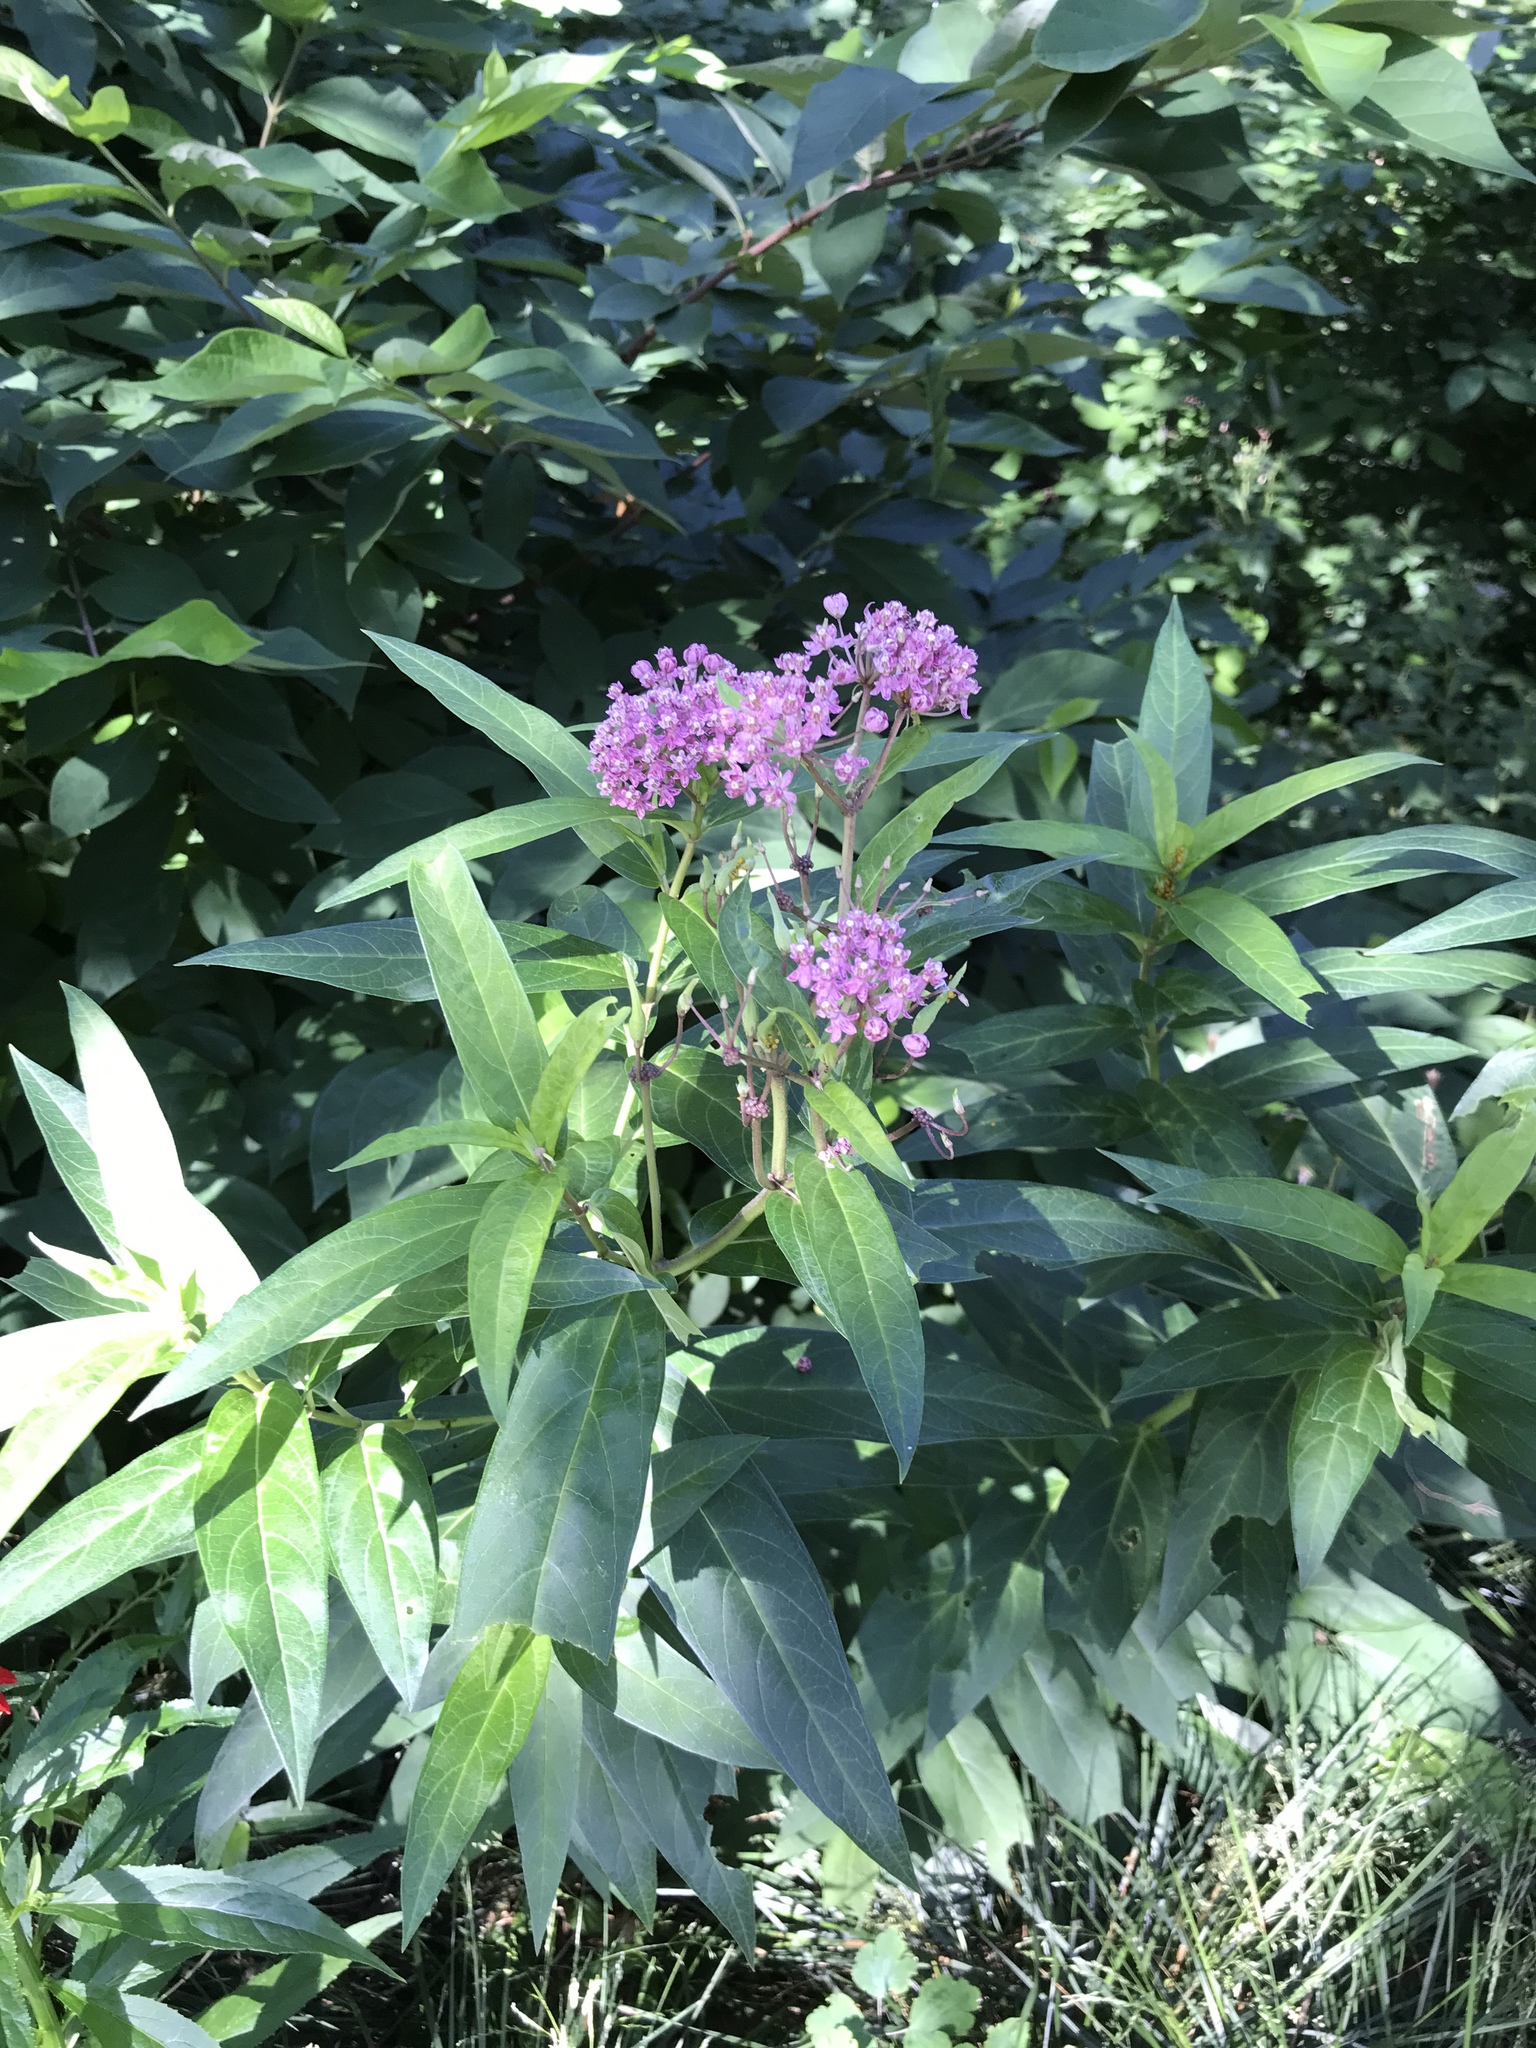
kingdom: Plantae
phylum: Tracheophyta
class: Magnoliopsida
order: Gentianales
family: Apocynaceae
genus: Asclepias
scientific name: Asclepias incarnata
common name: Swamp milkweed
